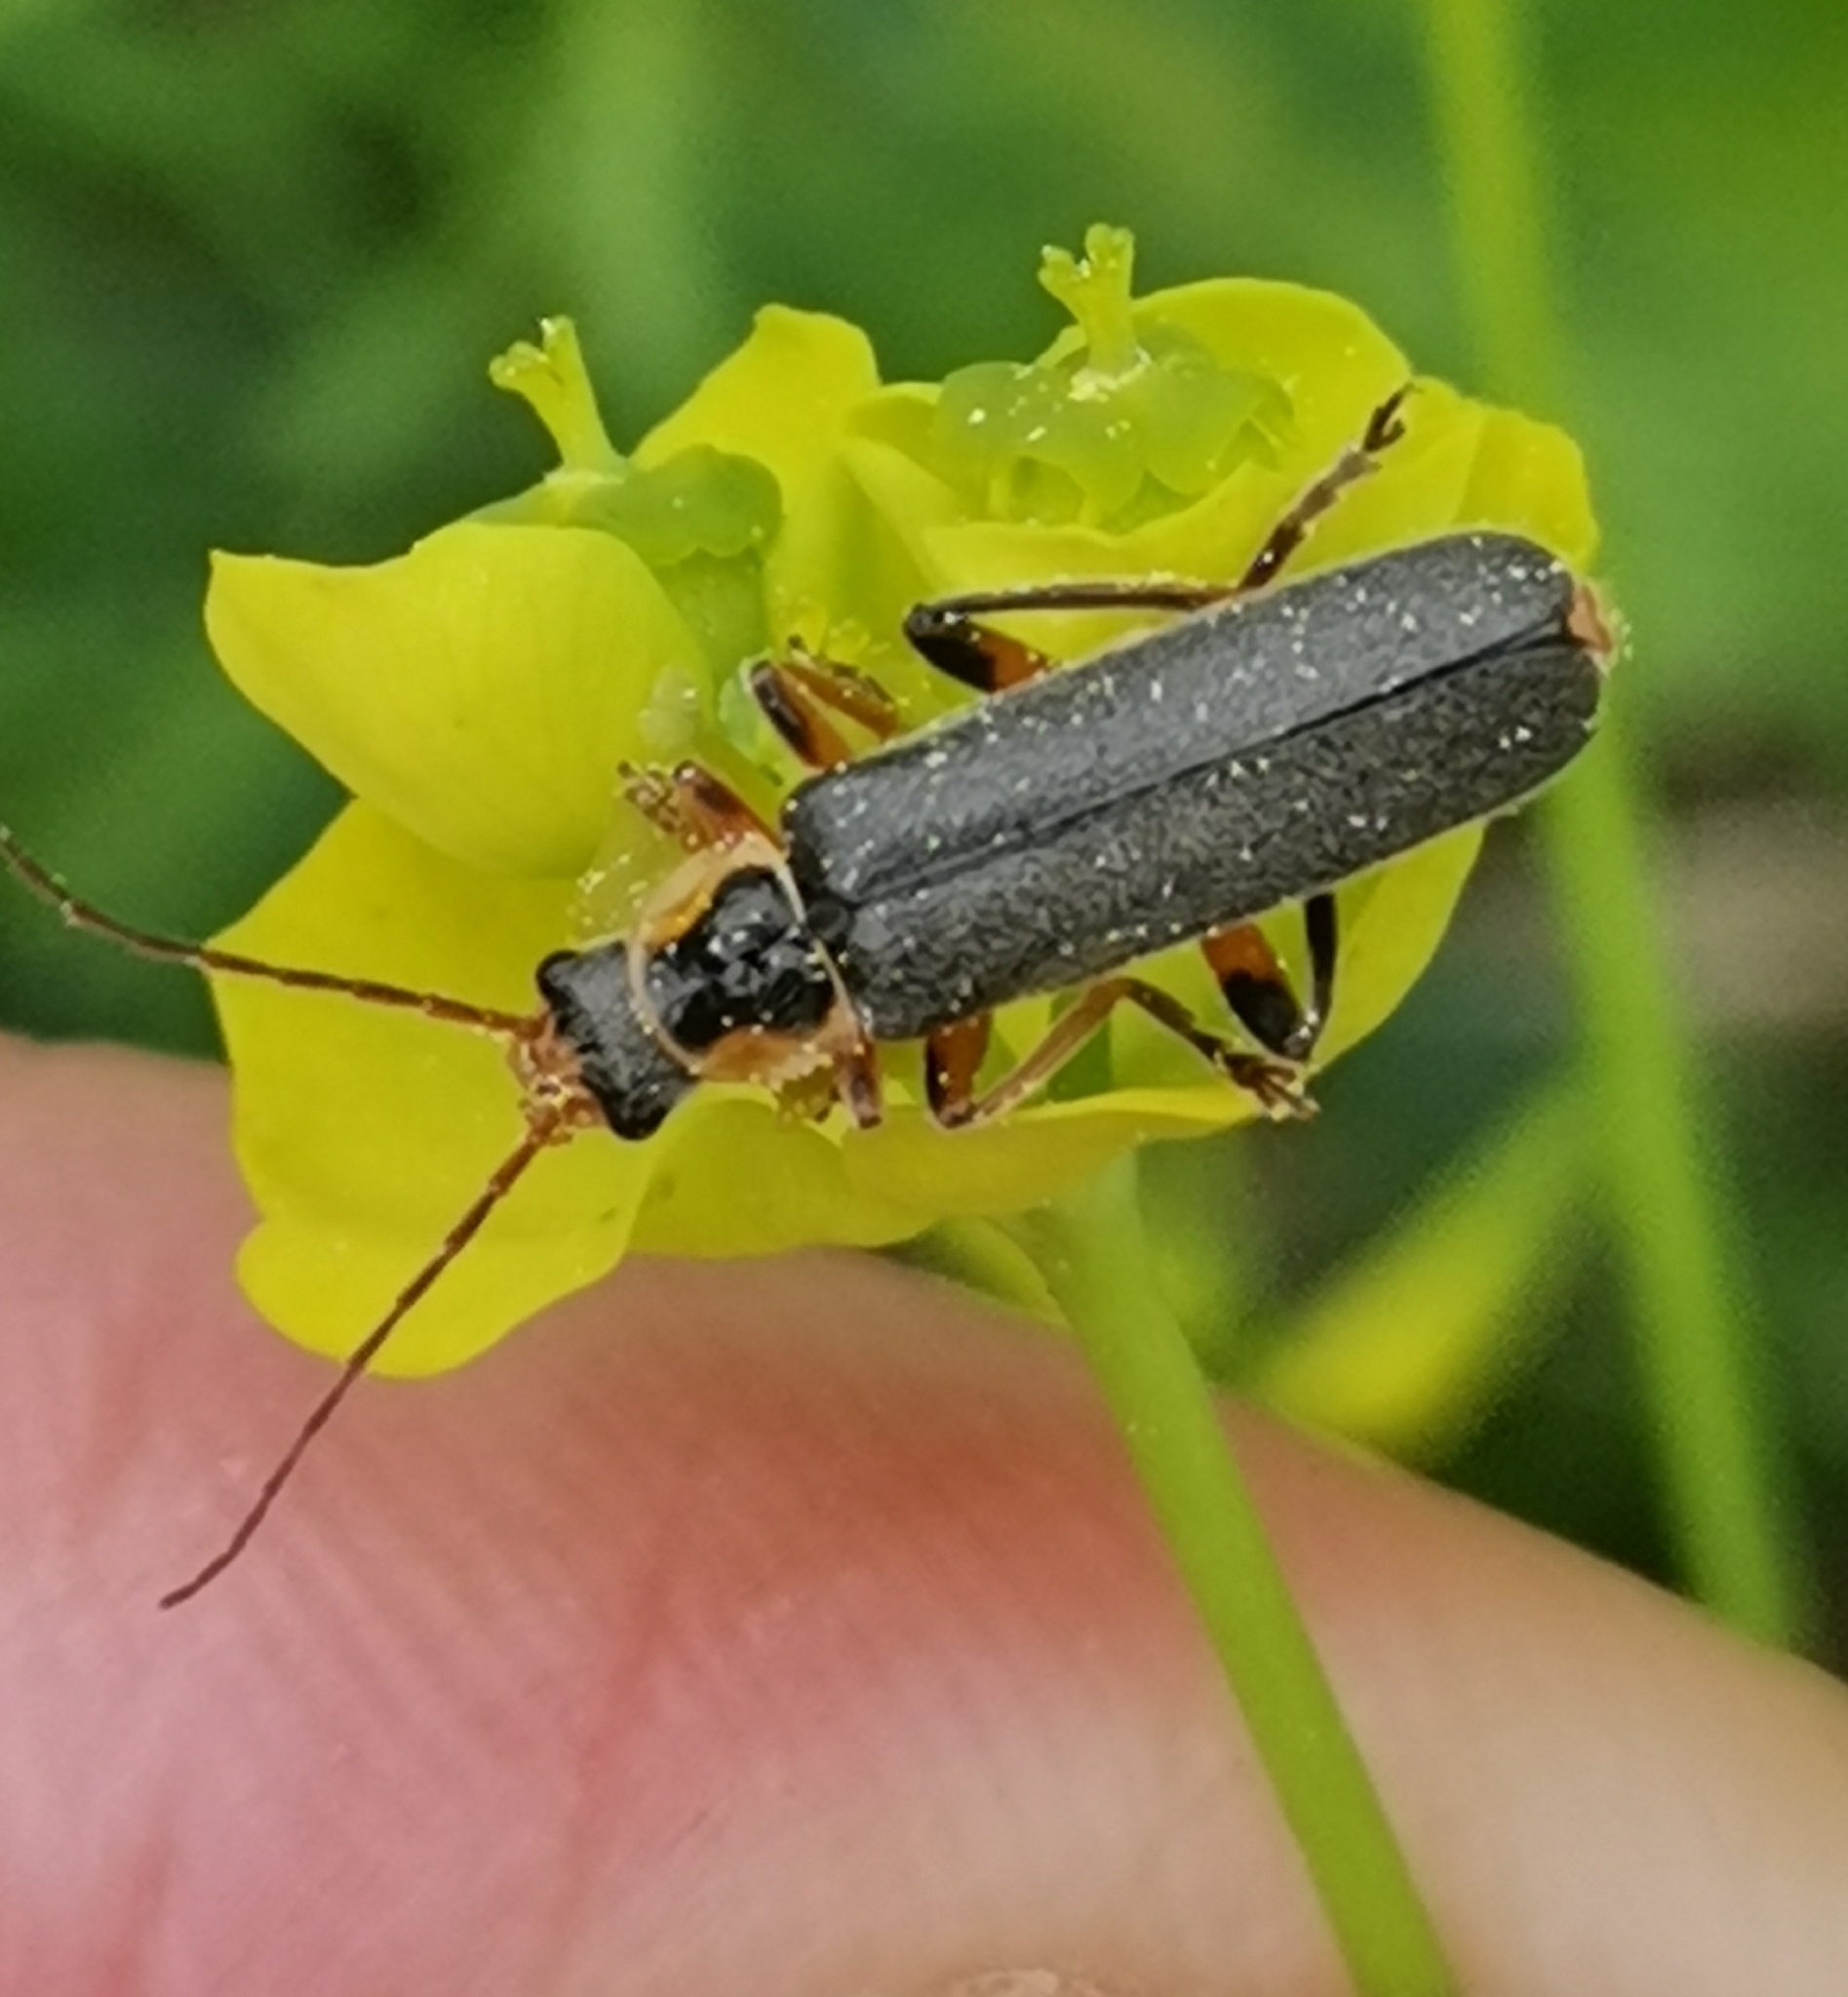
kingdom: Animalia
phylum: Arthropoda
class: Insecta
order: Coleoptera
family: Cantharidae
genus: Cantharis
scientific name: Cantharis nigricans
